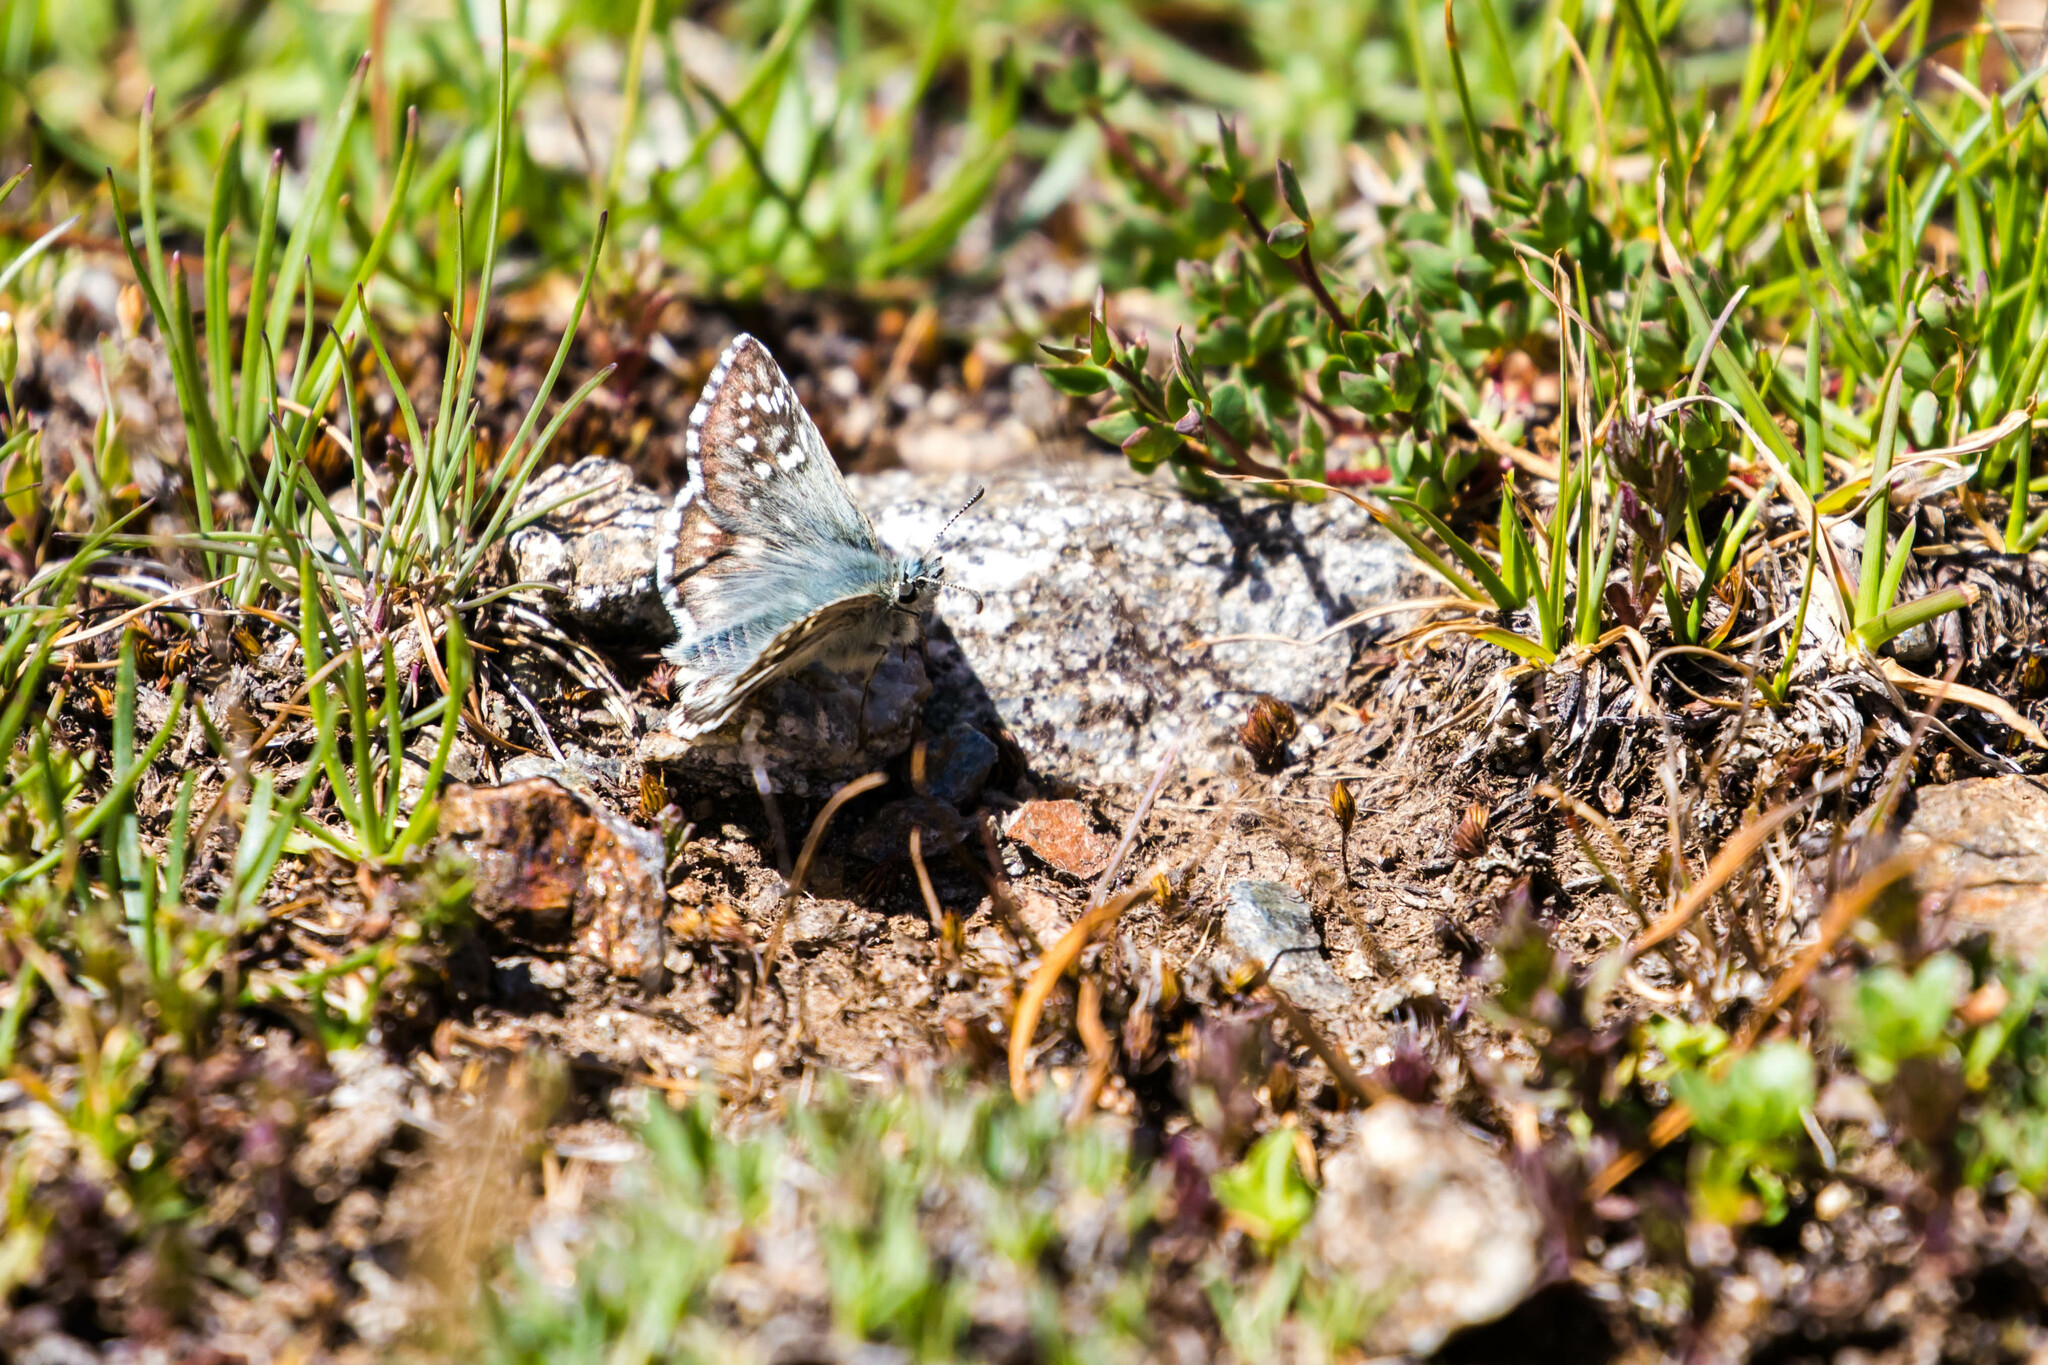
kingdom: Animalia
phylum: Arthropoda
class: Insecta
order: Lepidoptera
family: Hesperiidae
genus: Pyrgus
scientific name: Pyrgus fritillarius
